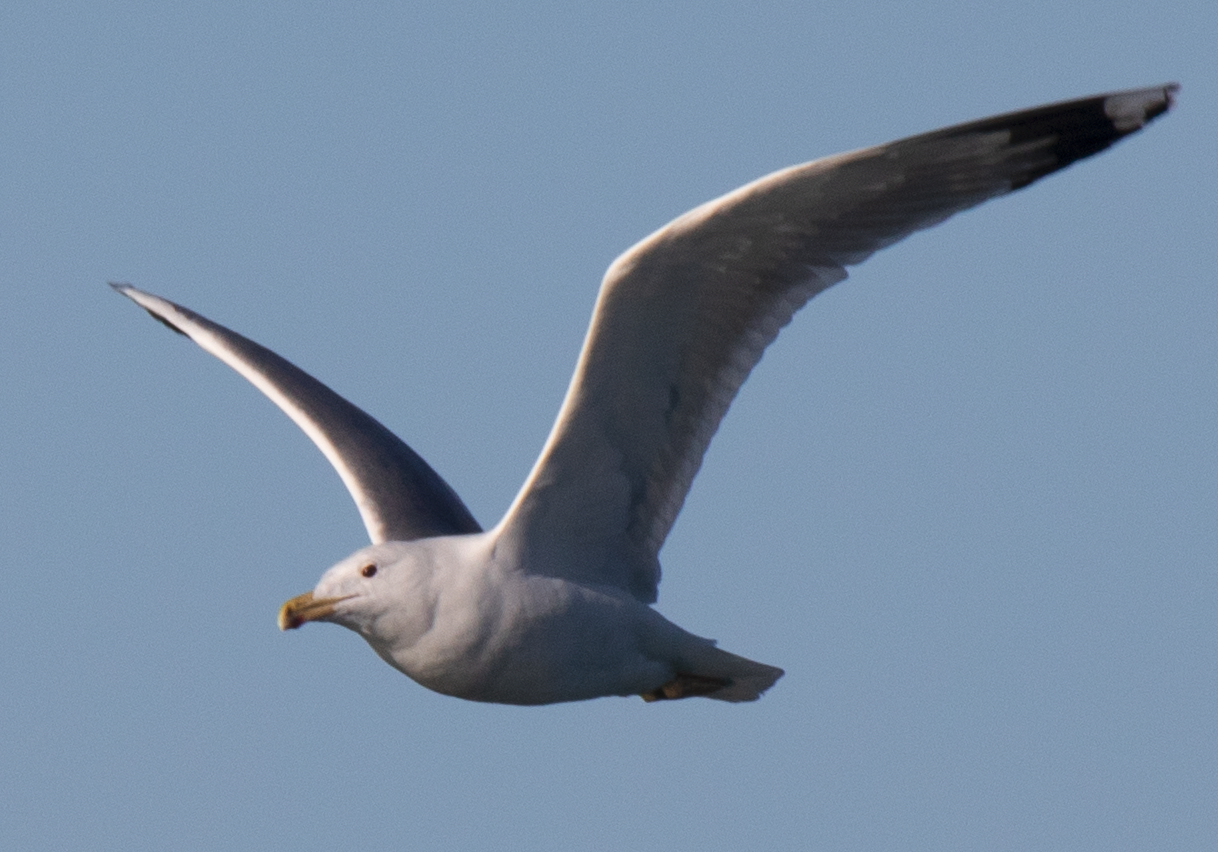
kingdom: Animalia
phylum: Chordata
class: Aves
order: Charadriiformes
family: Laridae
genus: Larus
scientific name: Larus michahellis
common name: Yellow-legged gull
